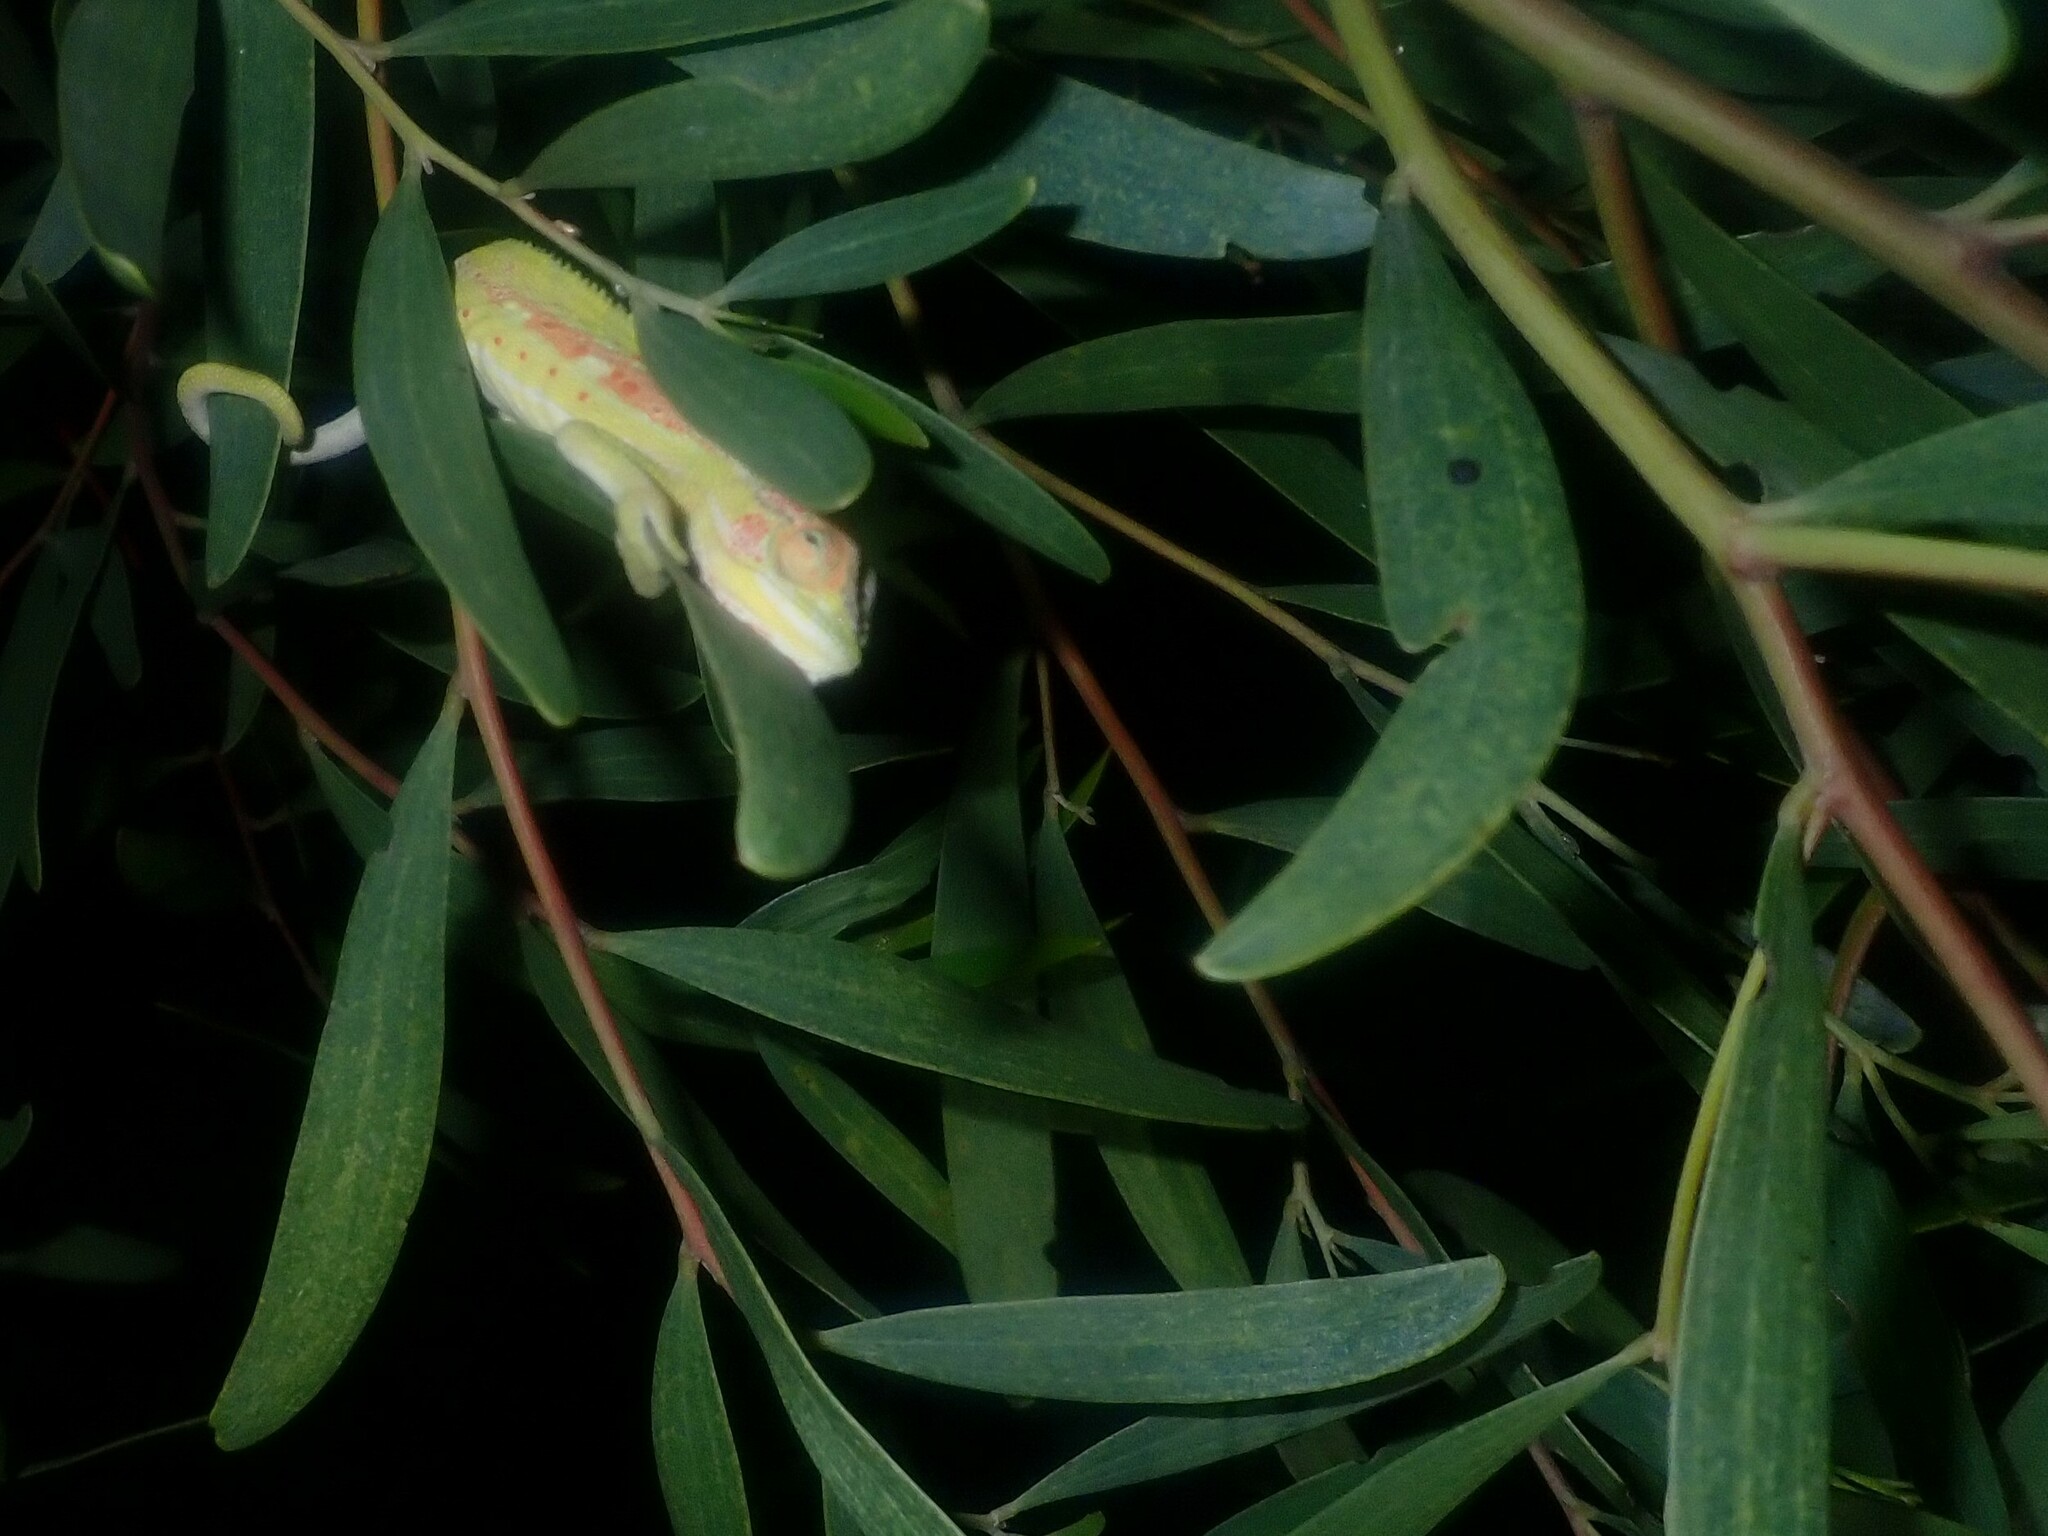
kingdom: Animalia
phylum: Chordata
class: Squamata
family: Chamaeleonidae
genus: Bradypodion
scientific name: Bradypodion pumilum
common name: Cape dwarf chameleon
